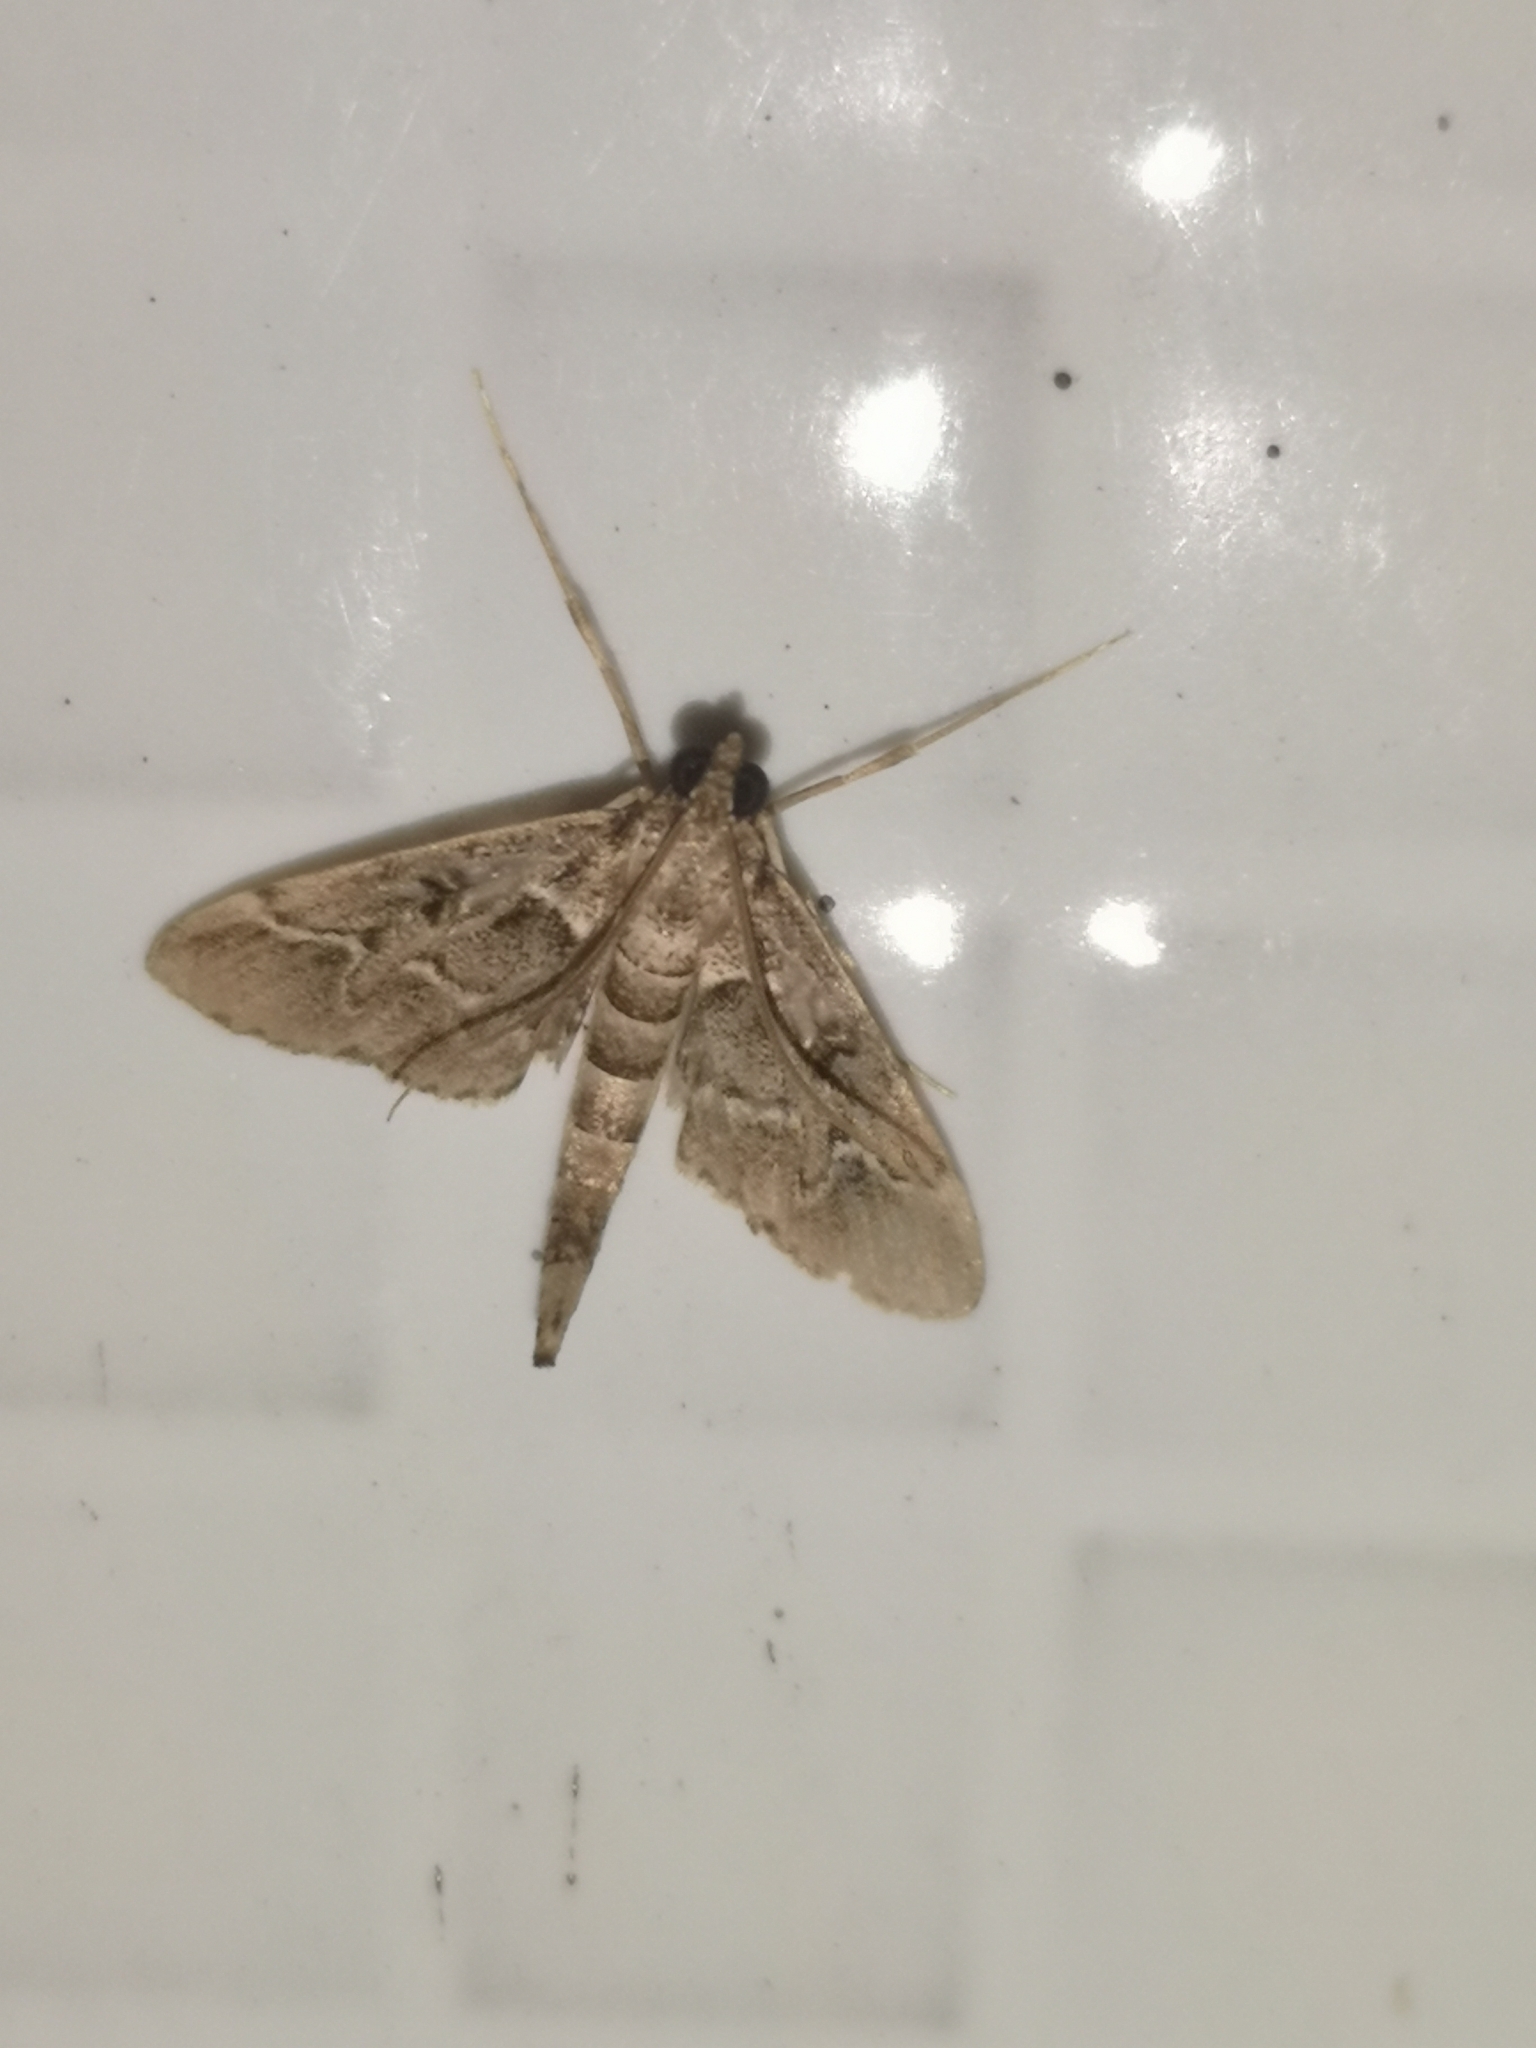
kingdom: Animalia
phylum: Arthropoda
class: Insecta
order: Lepidoptera
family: Crambidae
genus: Duponchelia
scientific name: Duponchelia fovealis
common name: Crambid moth
